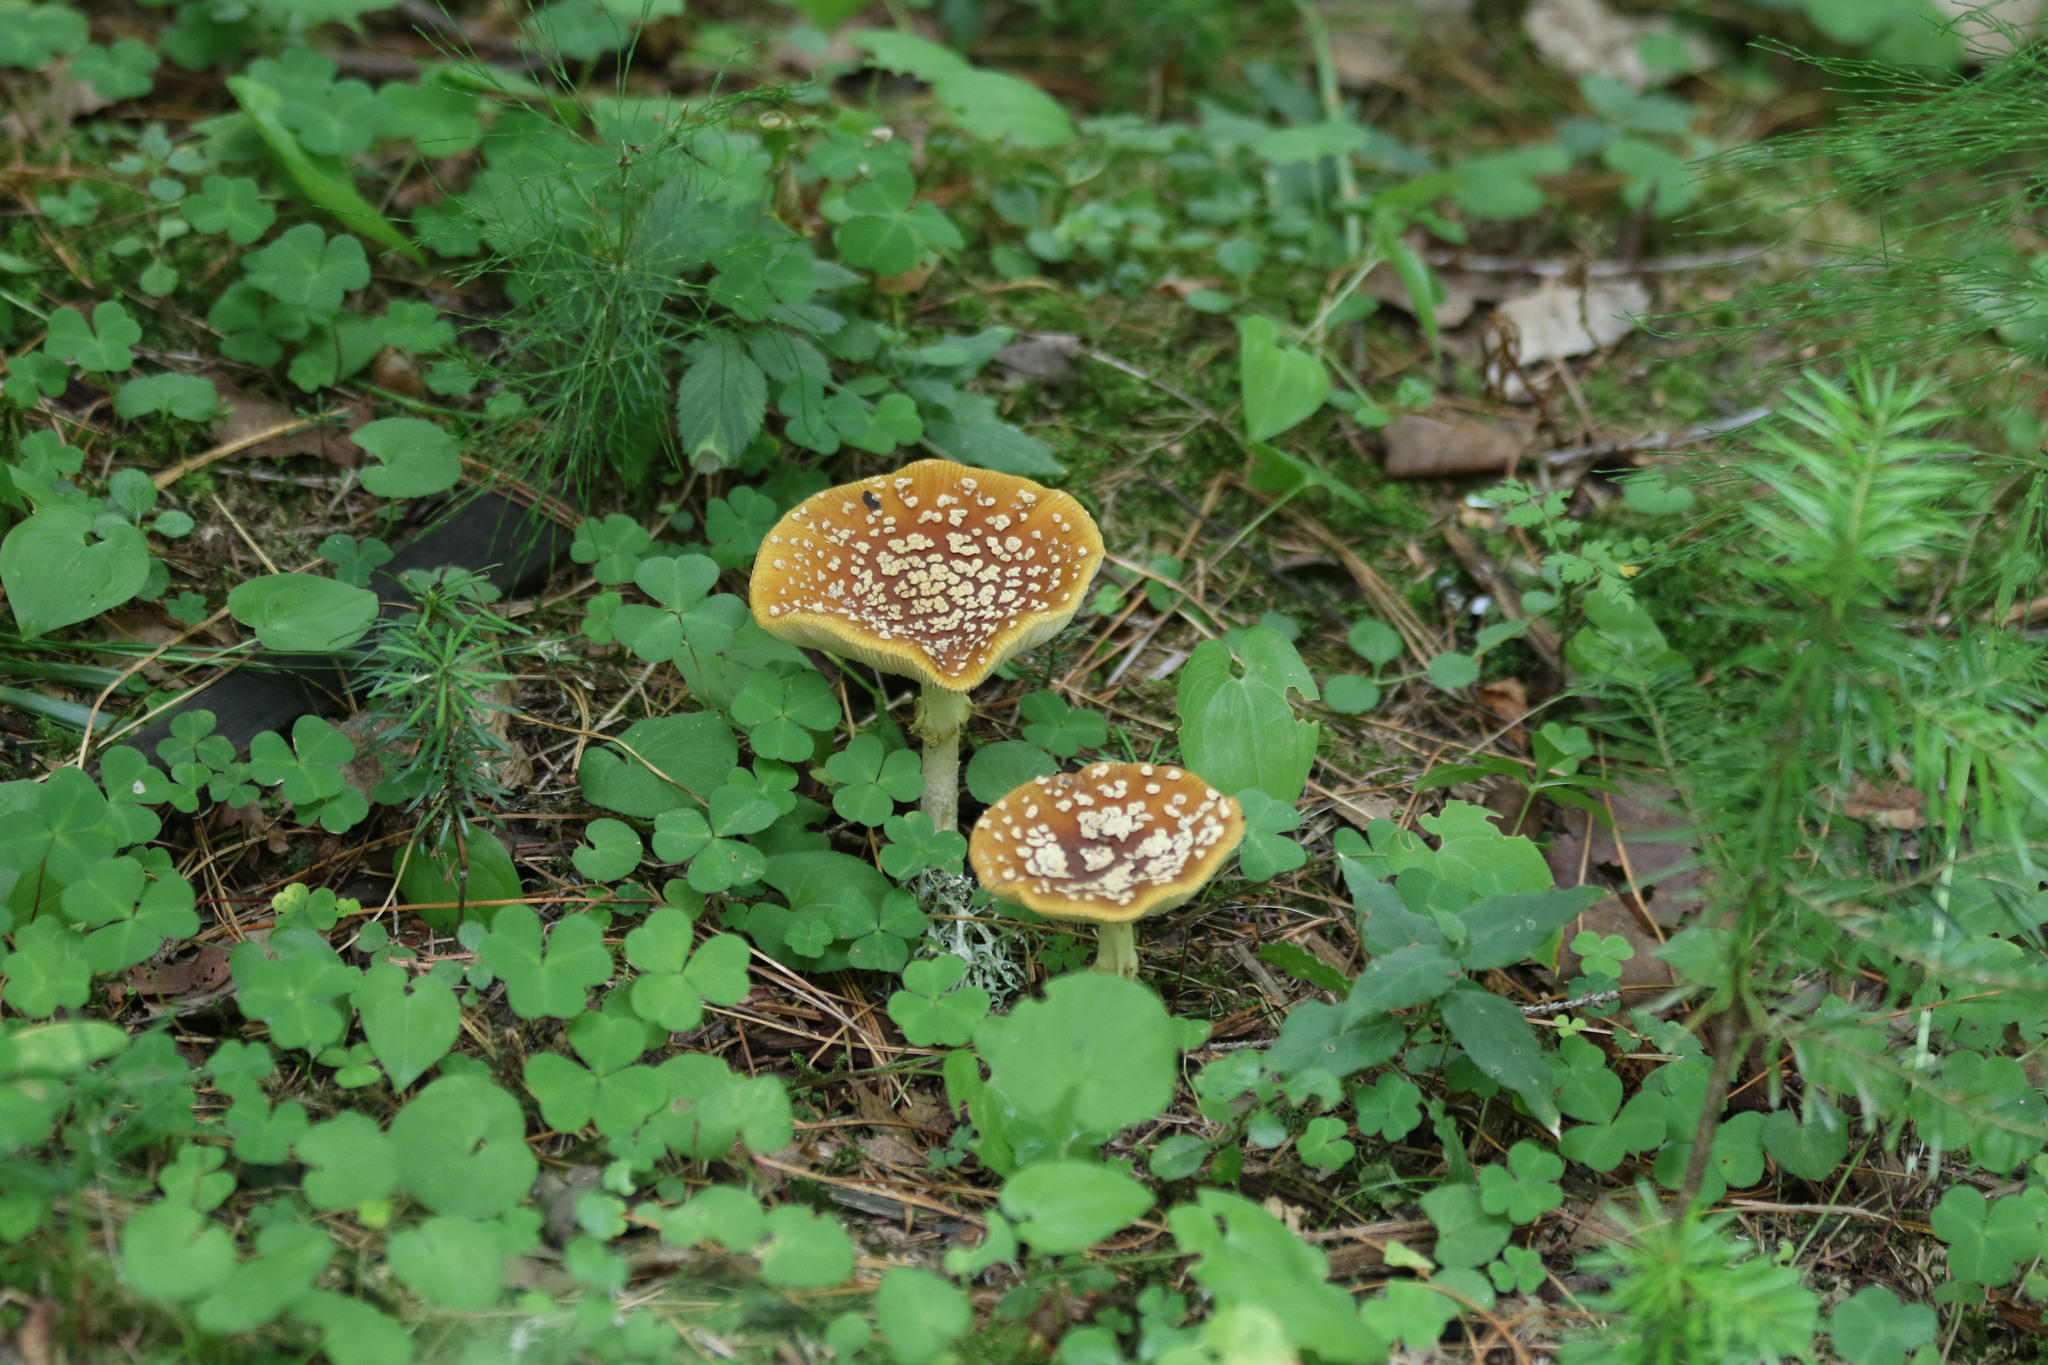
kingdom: Fungi
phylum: Basidiomycota
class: Agaricomycetes
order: Agaricales
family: Amanitaceae
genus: Amanita
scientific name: Amanita regalis
